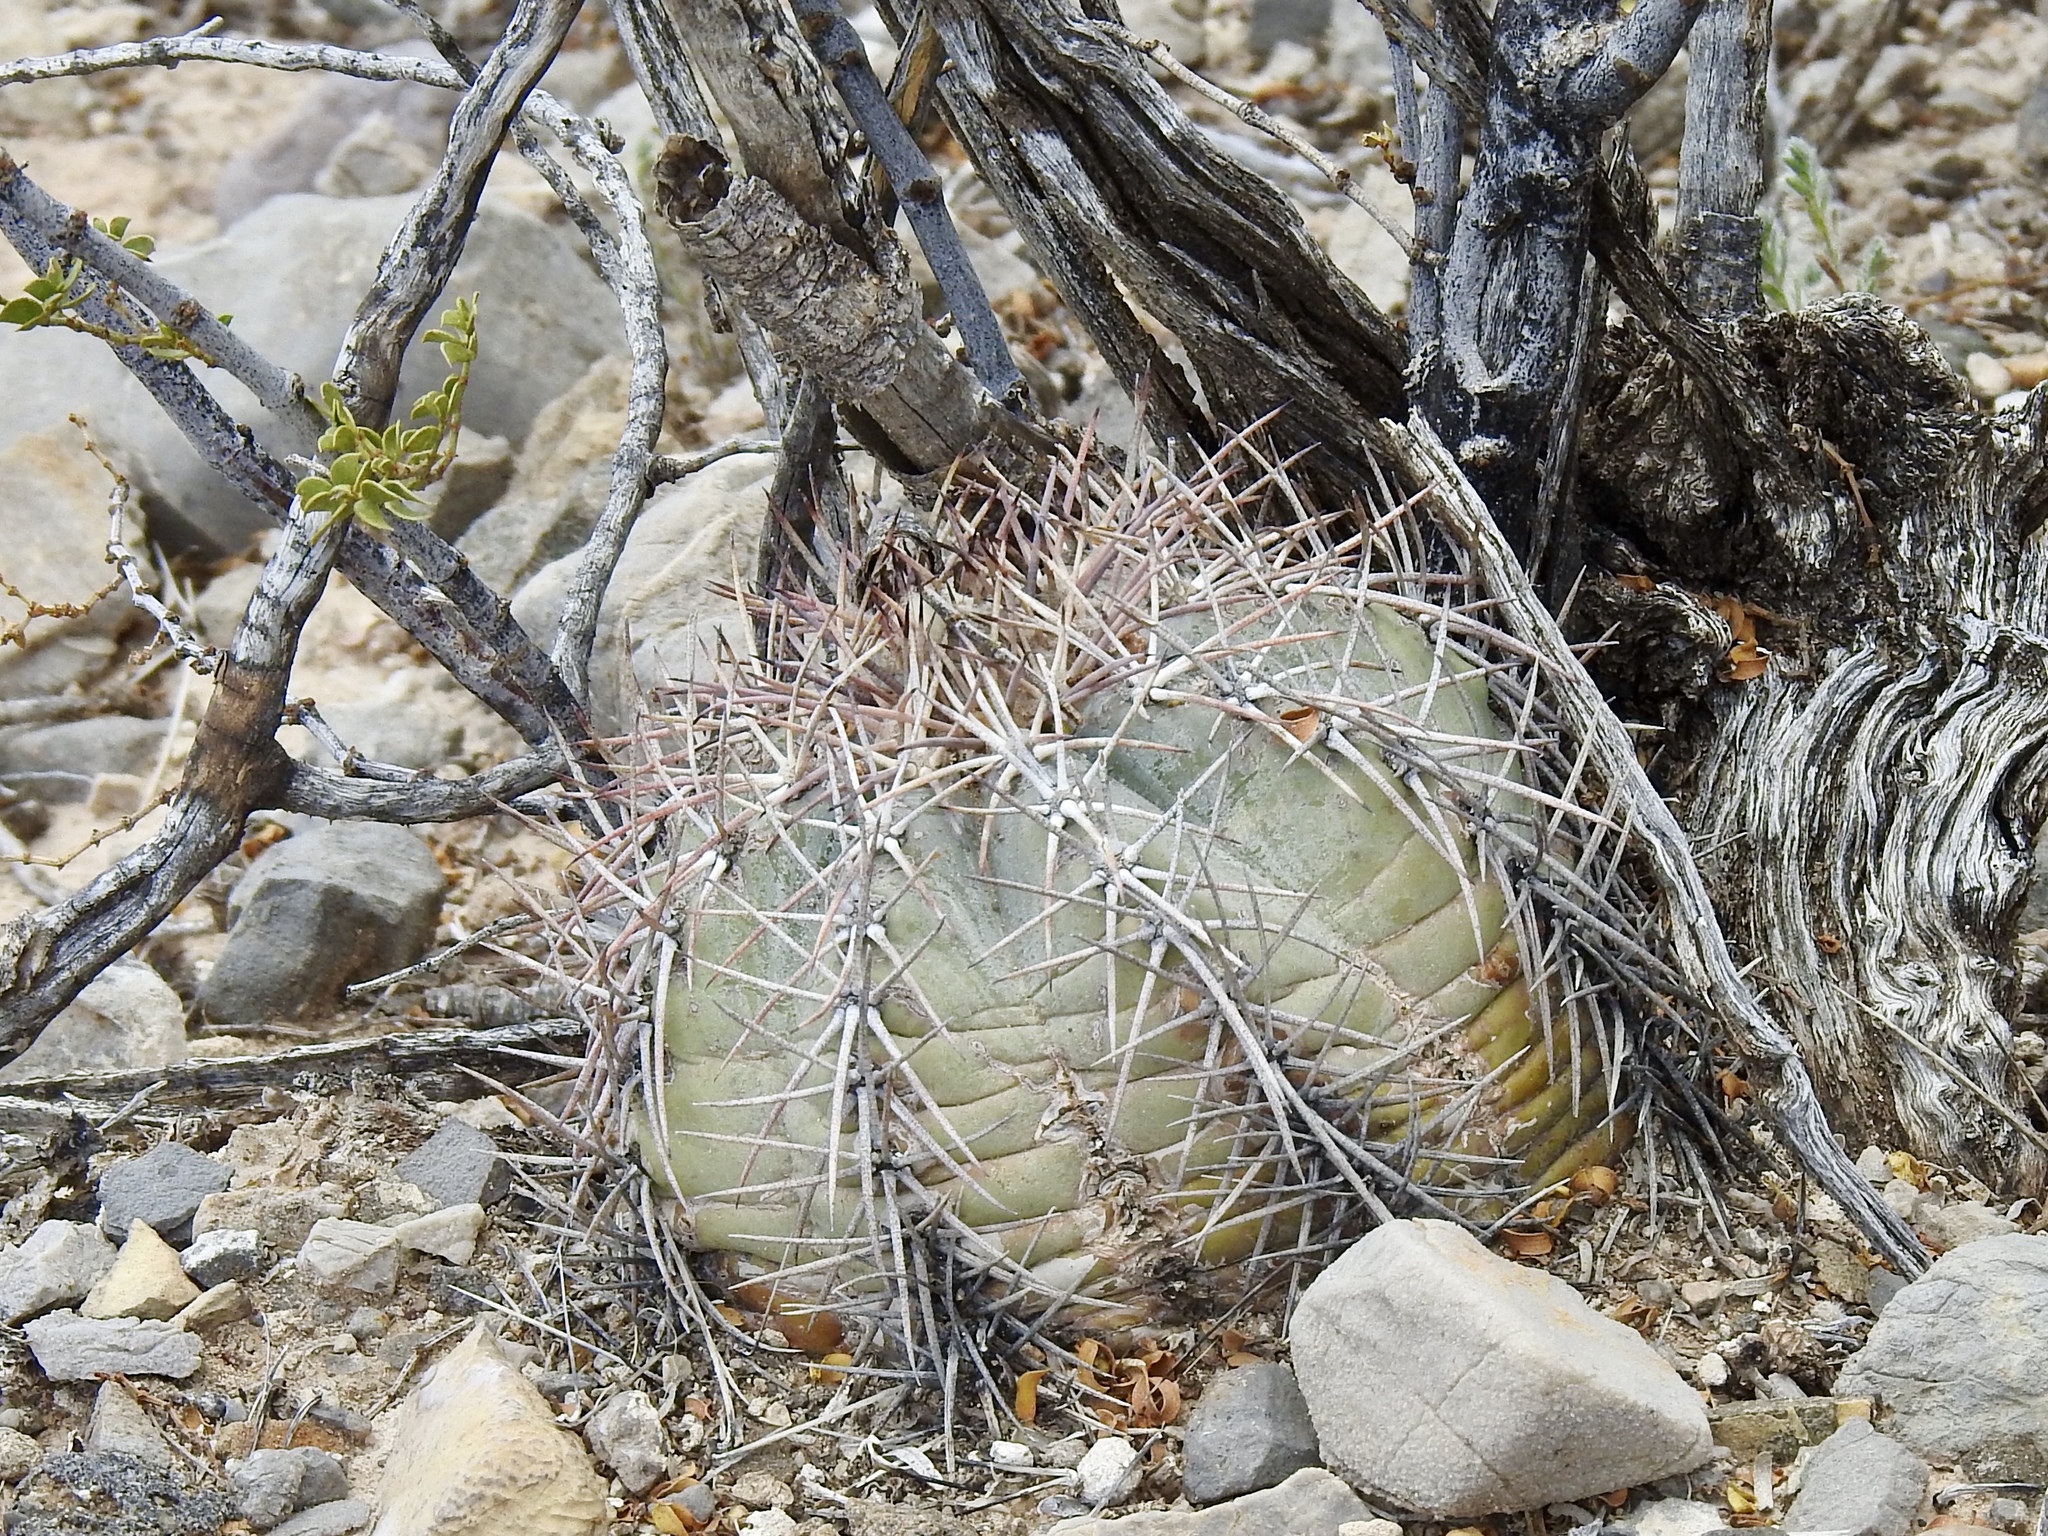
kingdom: Plantae
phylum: Tracheophyta
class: Magnoliopsida
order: Caryophyllales
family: Cactaceae
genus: Echinocactus
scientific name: Echinocactus horizonthalonius
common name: Devilshead
